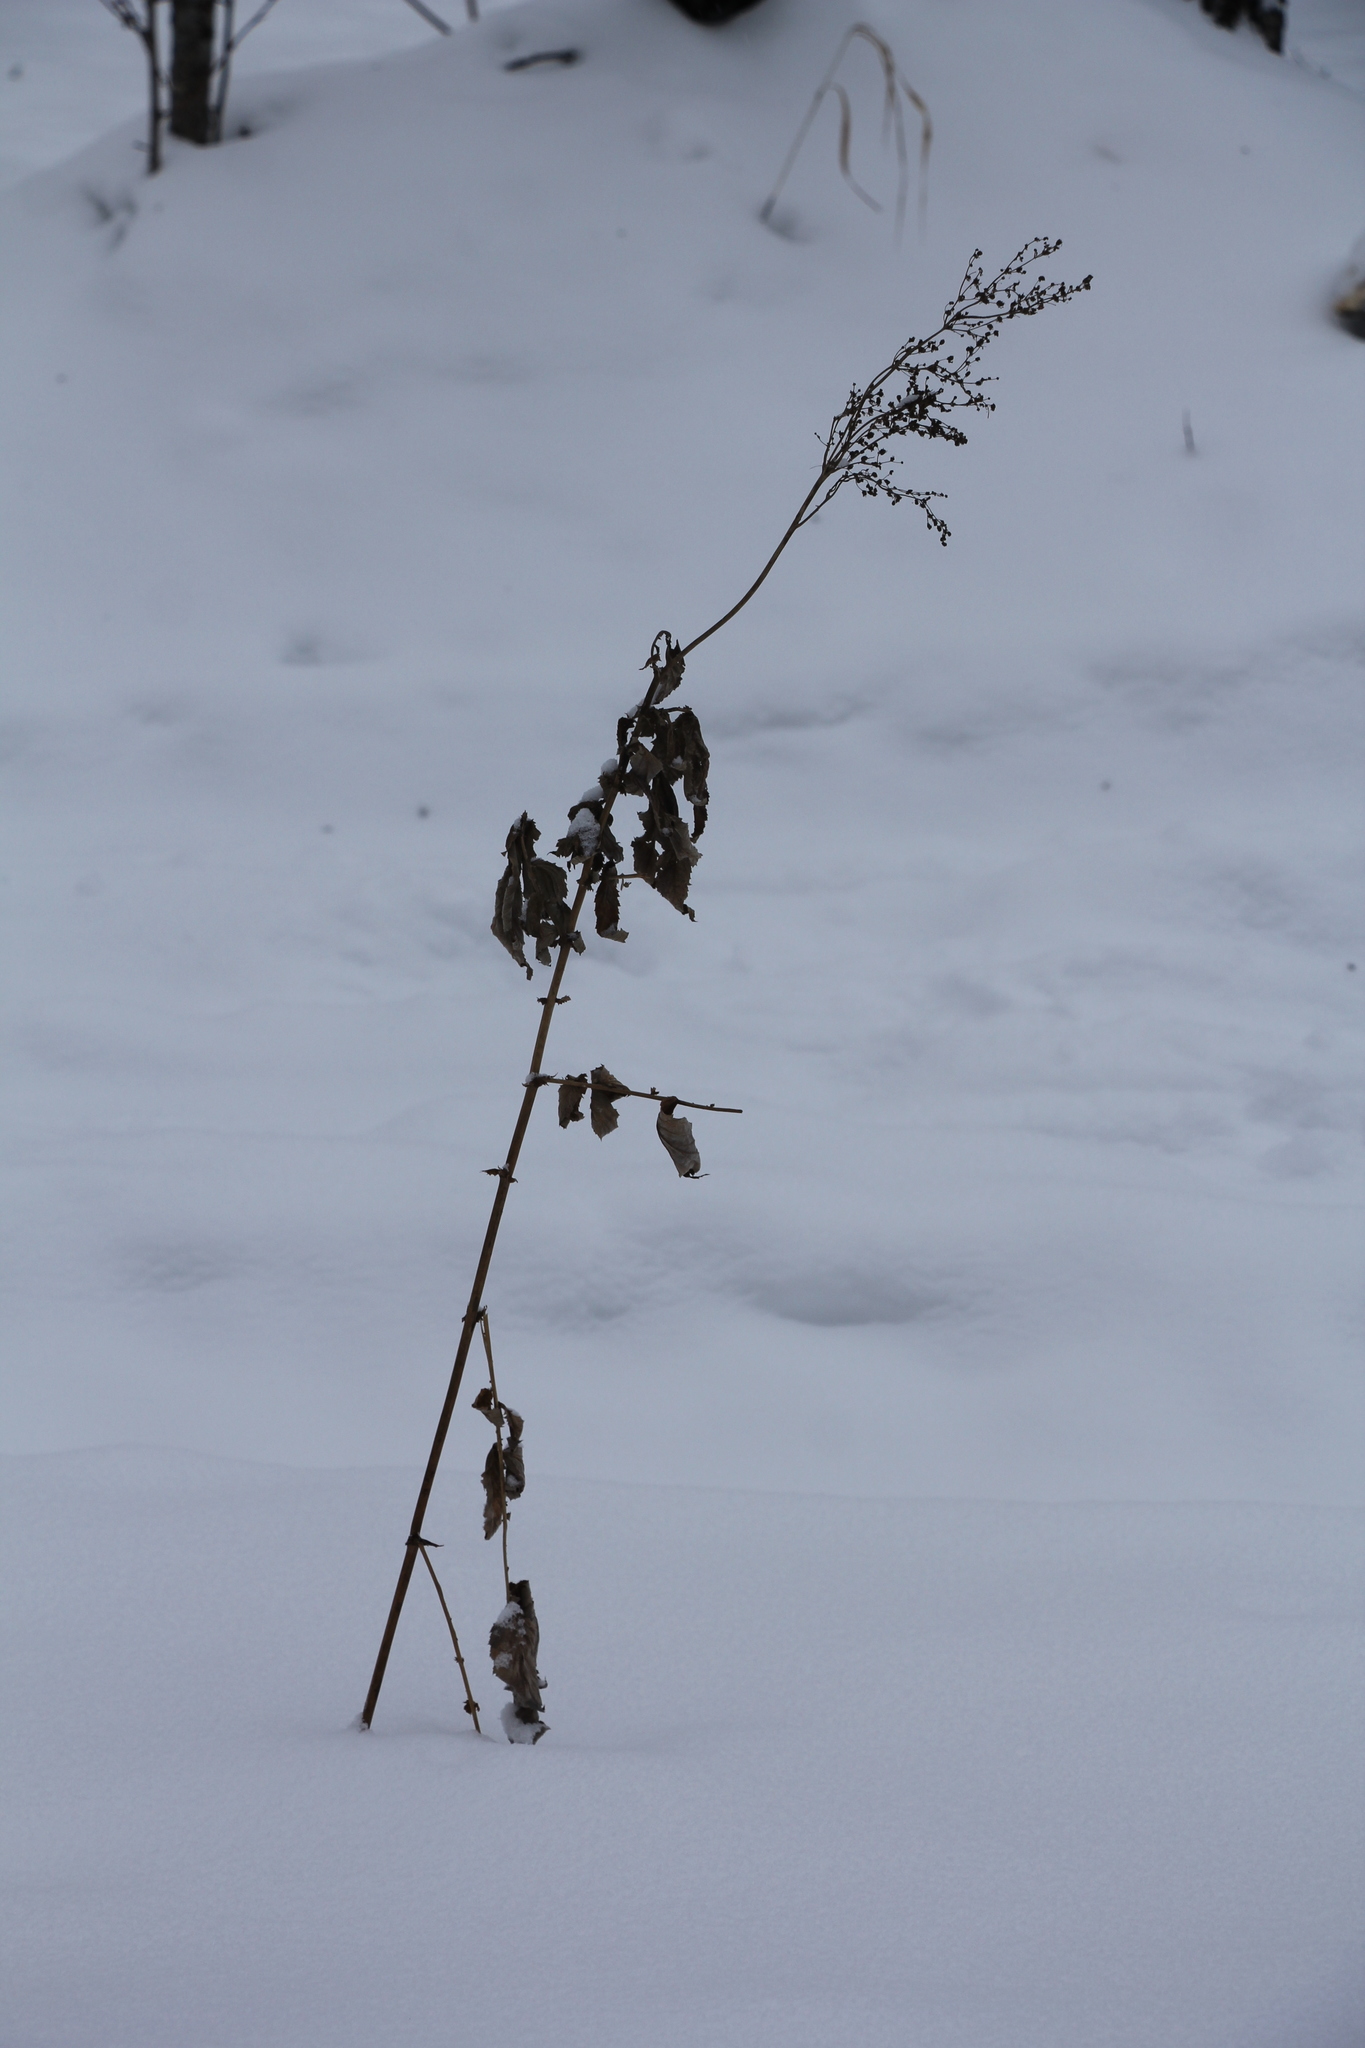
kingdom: Plantae
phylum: Tracheophyta
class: Magnoliopsida
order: Rosales
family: Rosaceae
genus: Filipendula
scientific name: Filipendula ulmaria
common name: Meadowsweet
